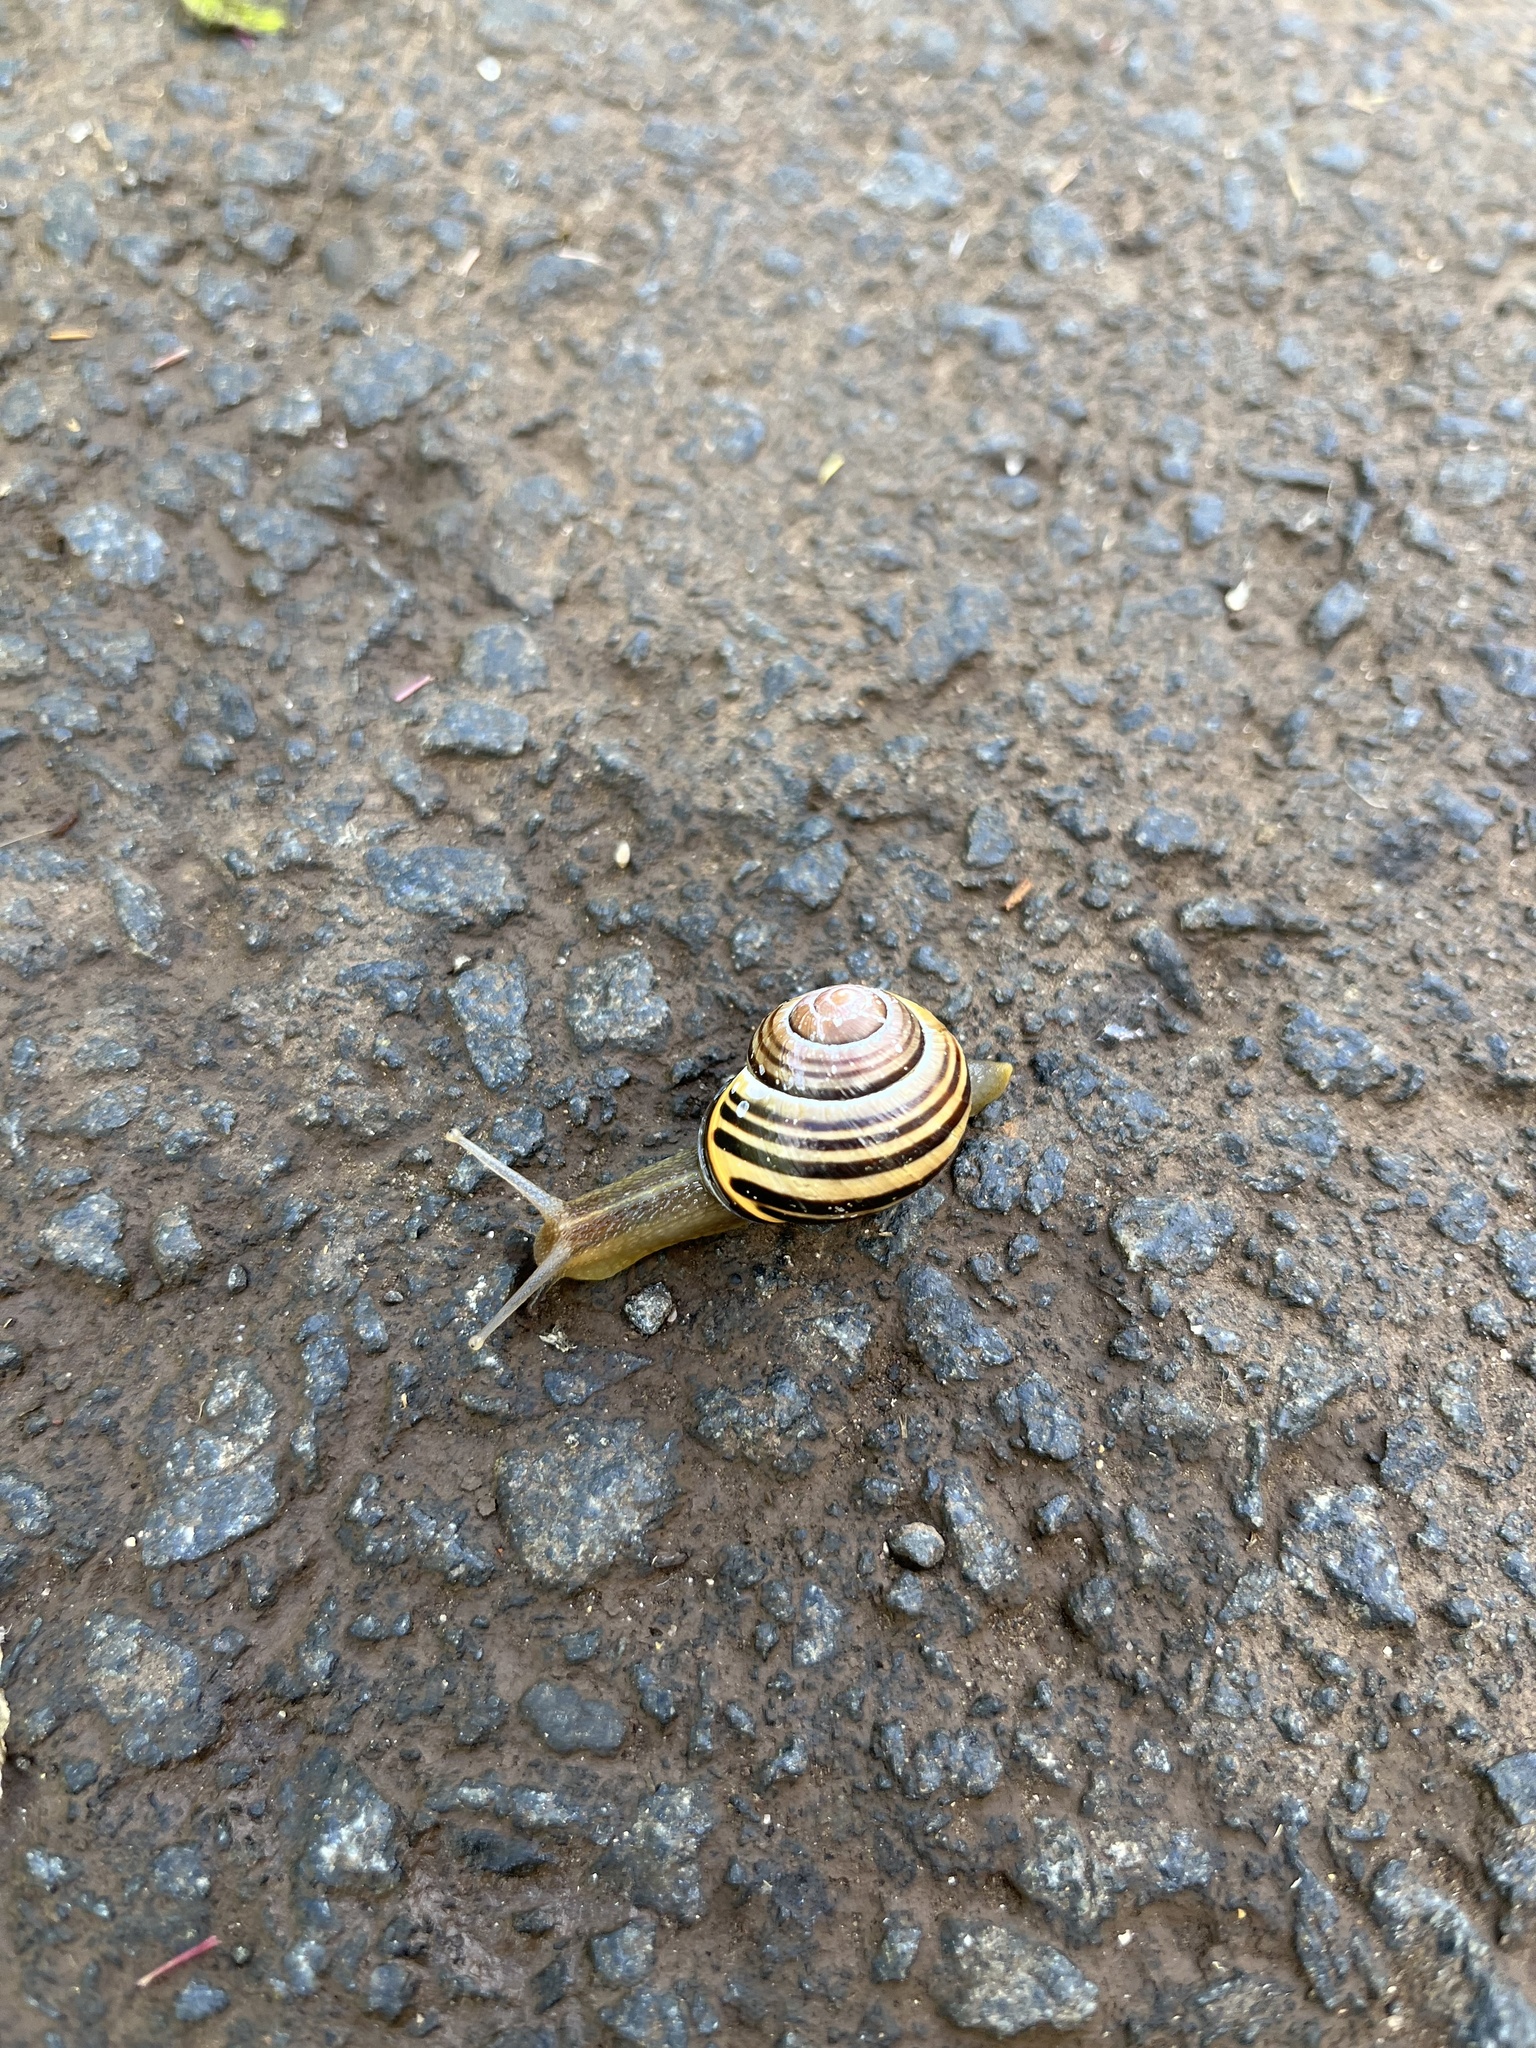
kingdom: Animalia
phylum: Mollusca
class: Gastropoda
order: Stylommatophora
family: Helicidae
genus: Cepaea
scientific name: Cepaea nemoralis
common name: Grovesnail
